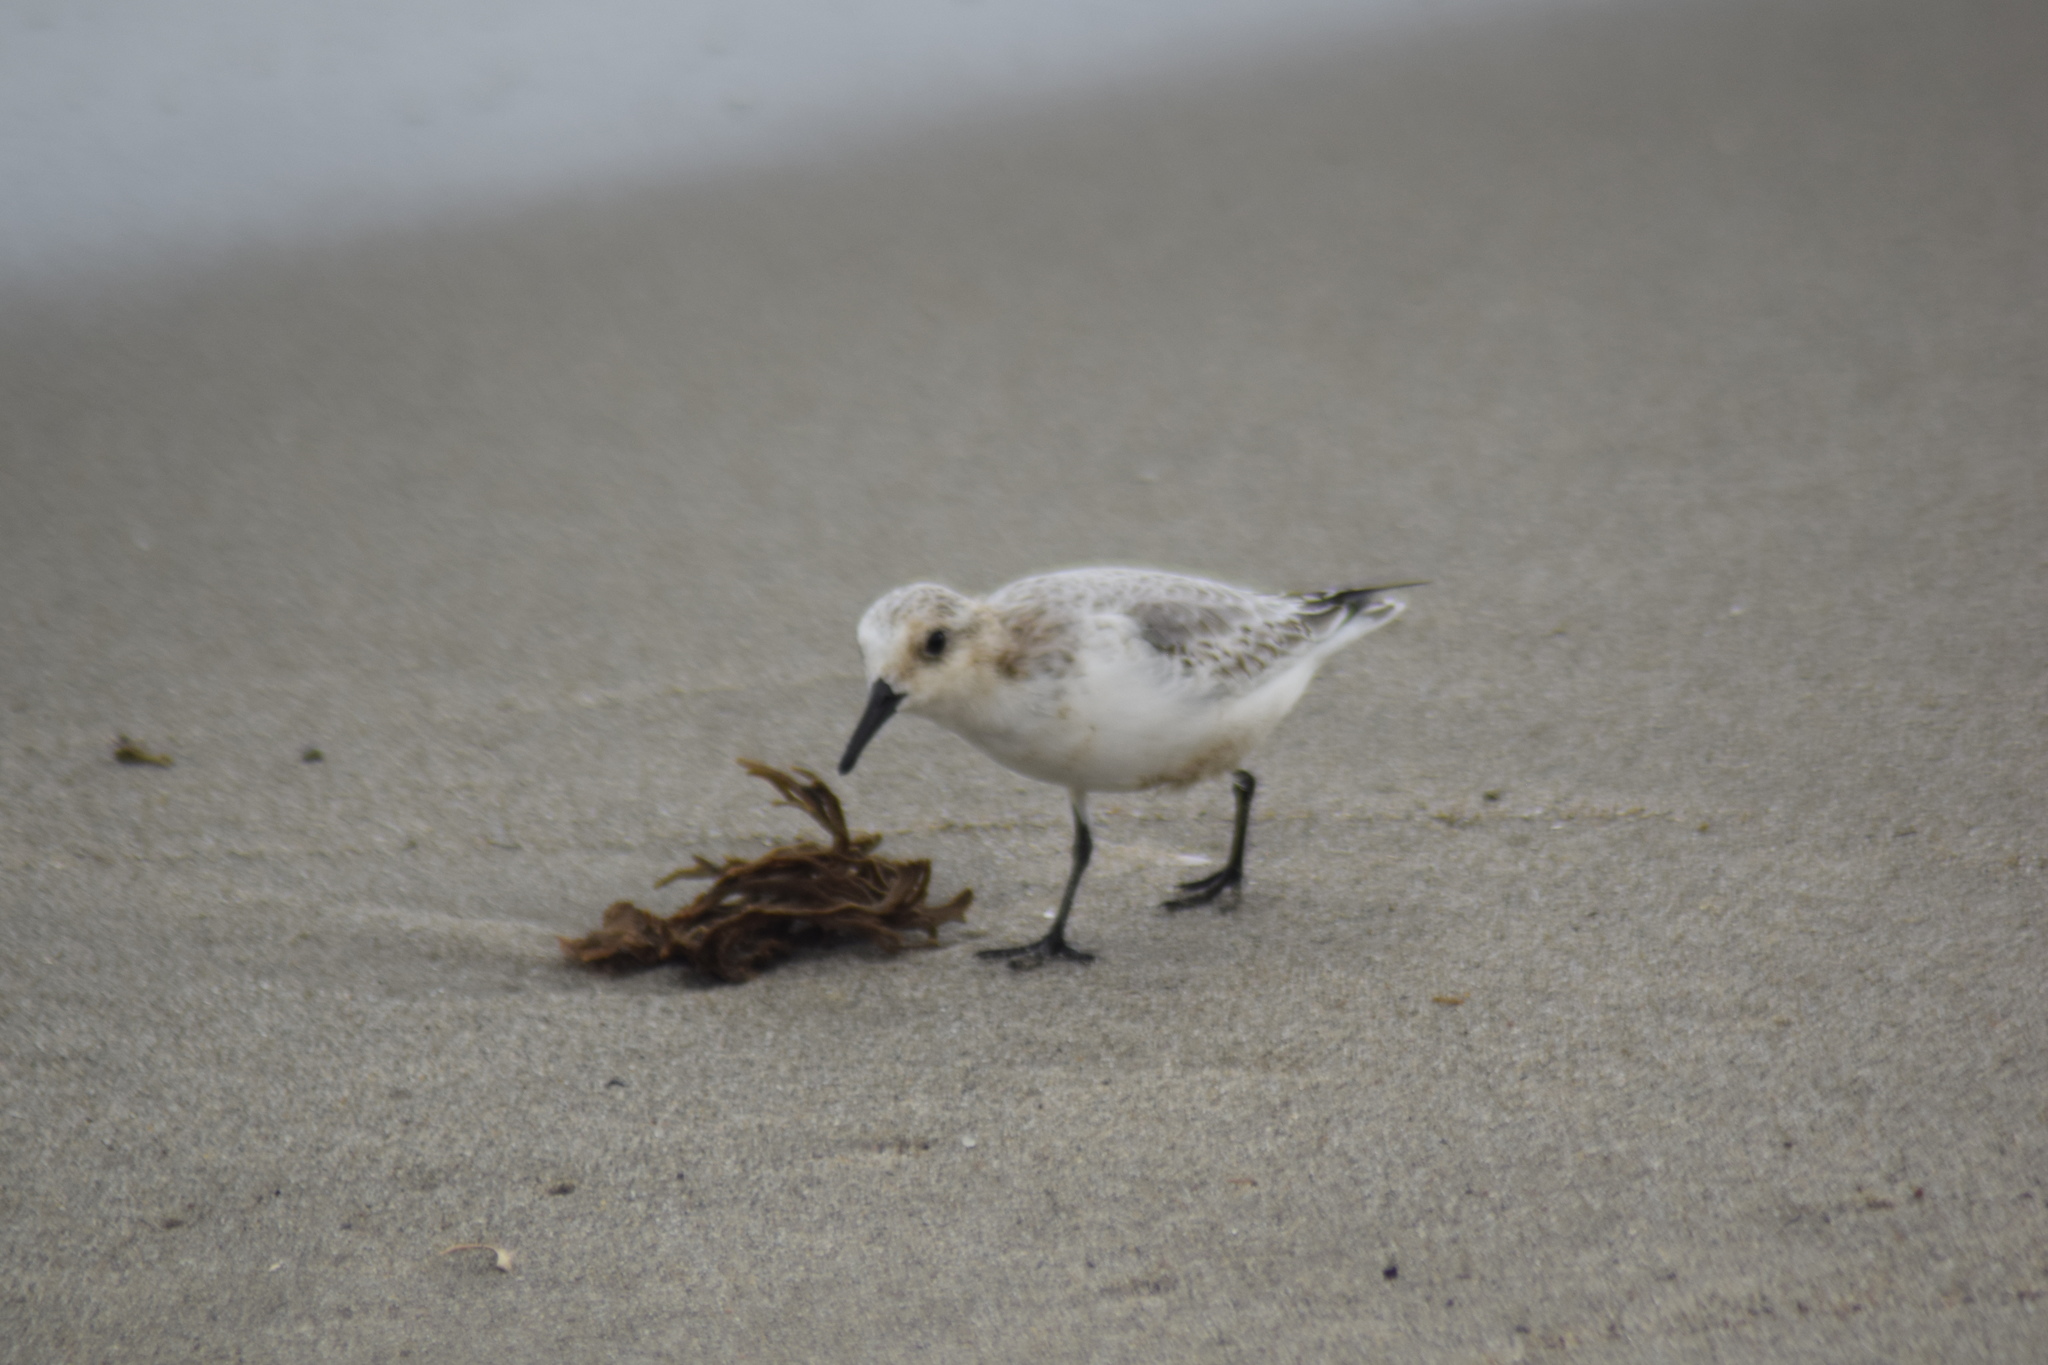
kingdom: Animalia
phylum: Chordata
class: Aves
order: Charadriiformes
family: Scolopacidae
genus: Calidris
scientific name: Calidris alba
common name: Sanderling
